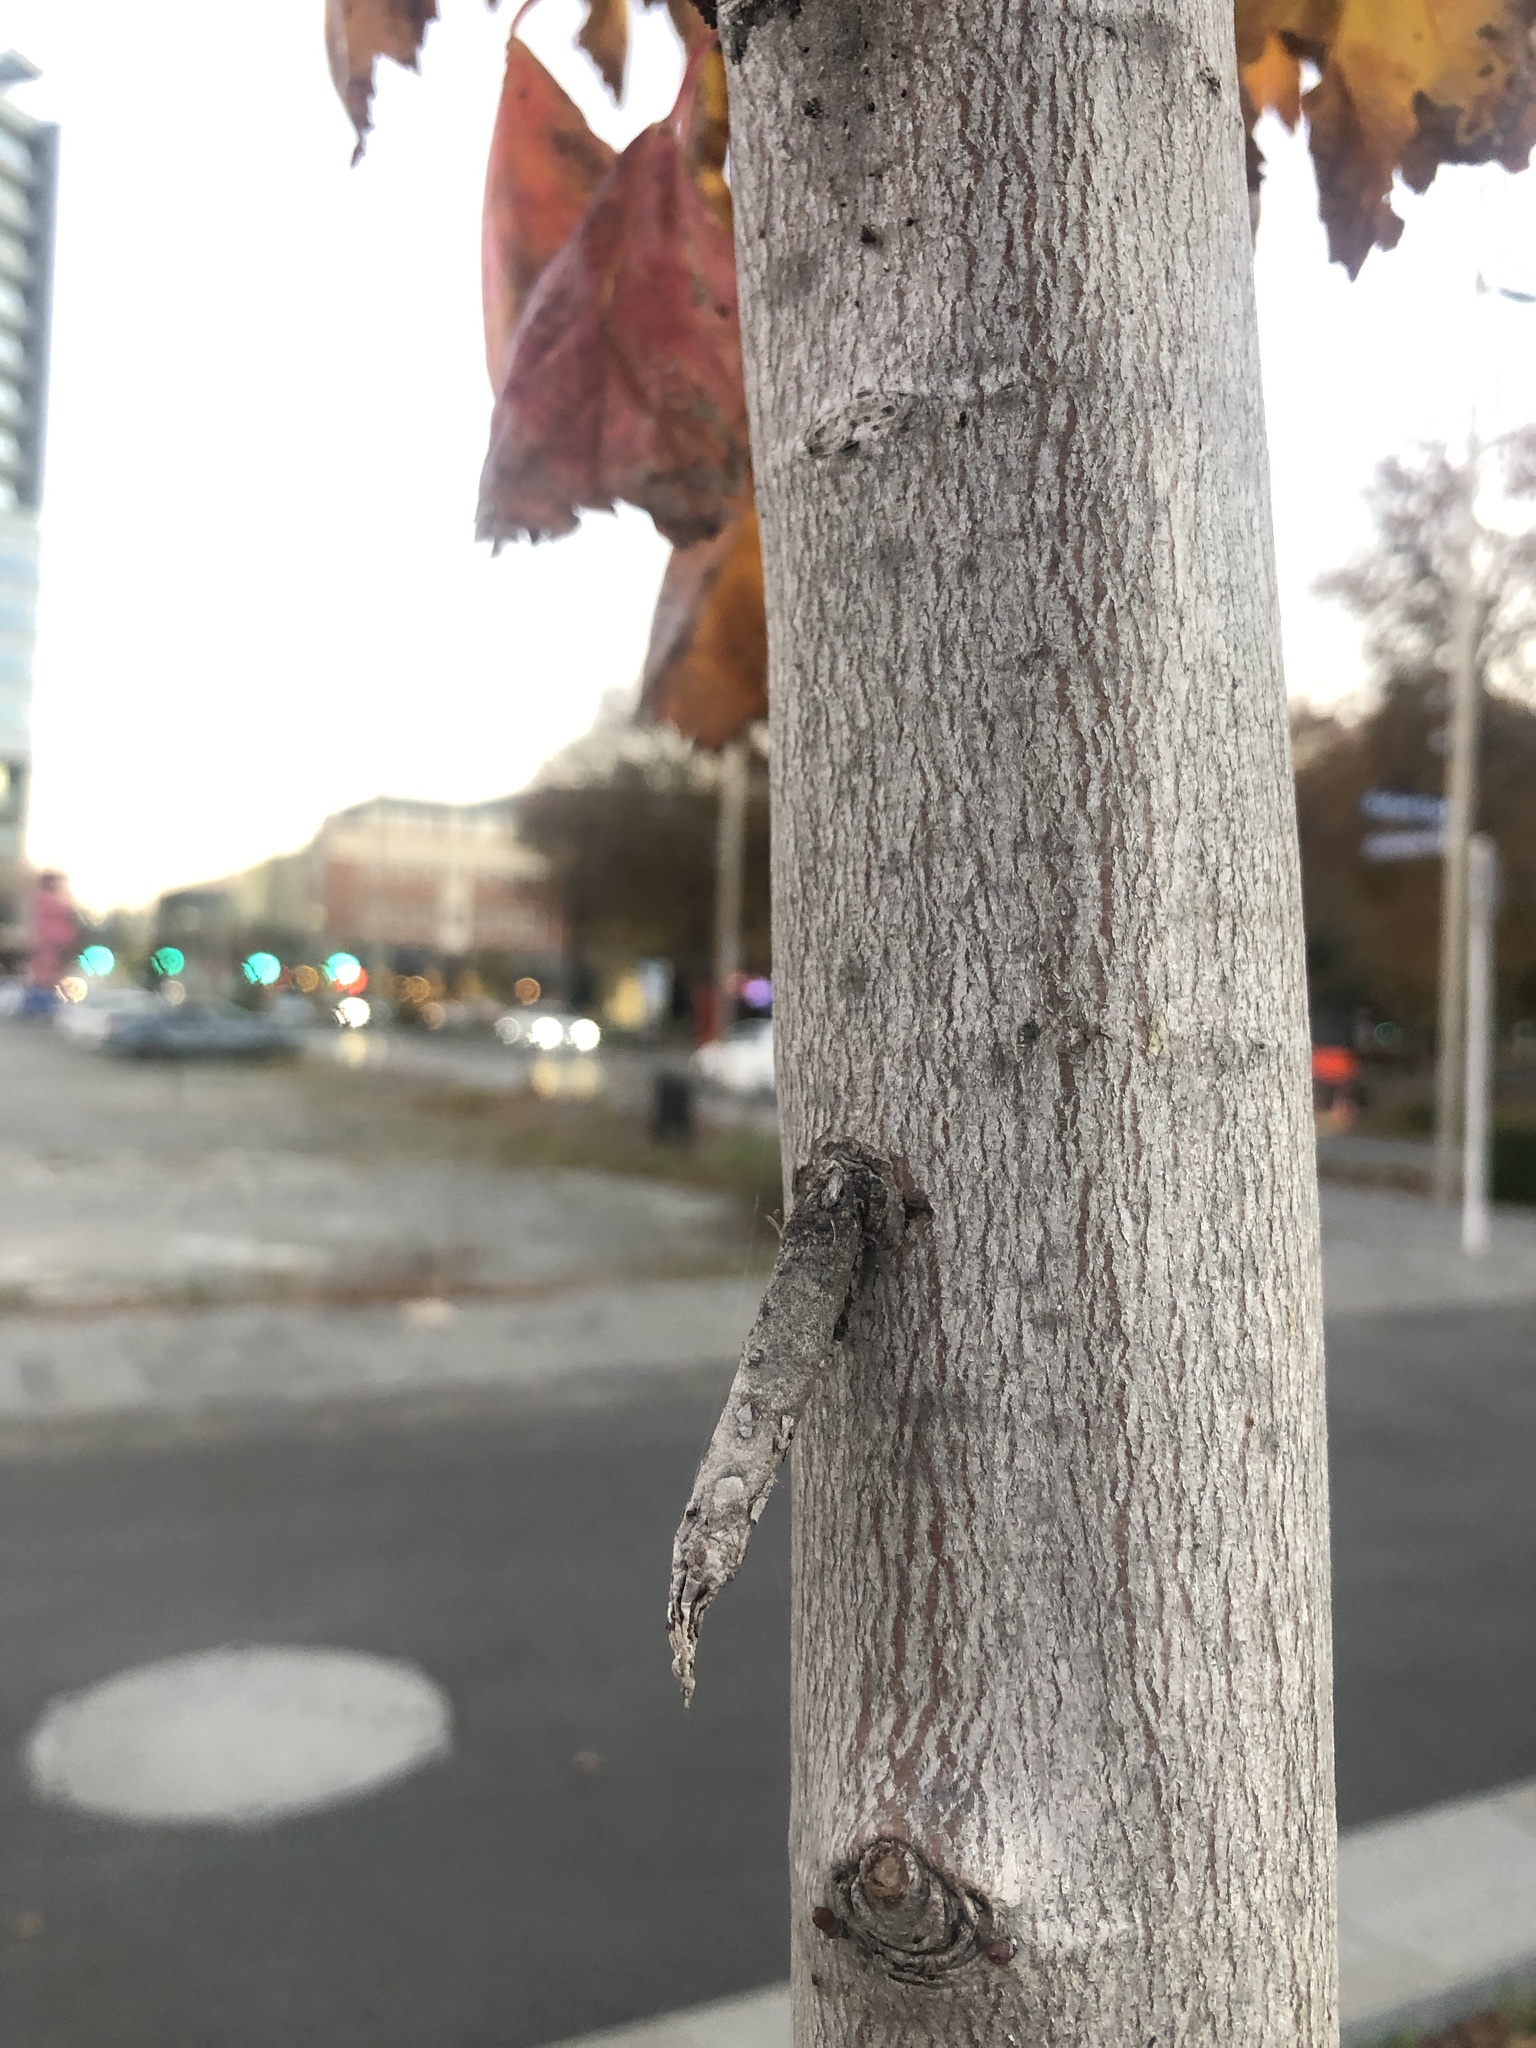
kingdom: Animalia
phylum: Arthropoda
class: Insecta
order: Lepidoptera
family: Psychidae
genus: Liothula
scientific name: Liothula omnivora
